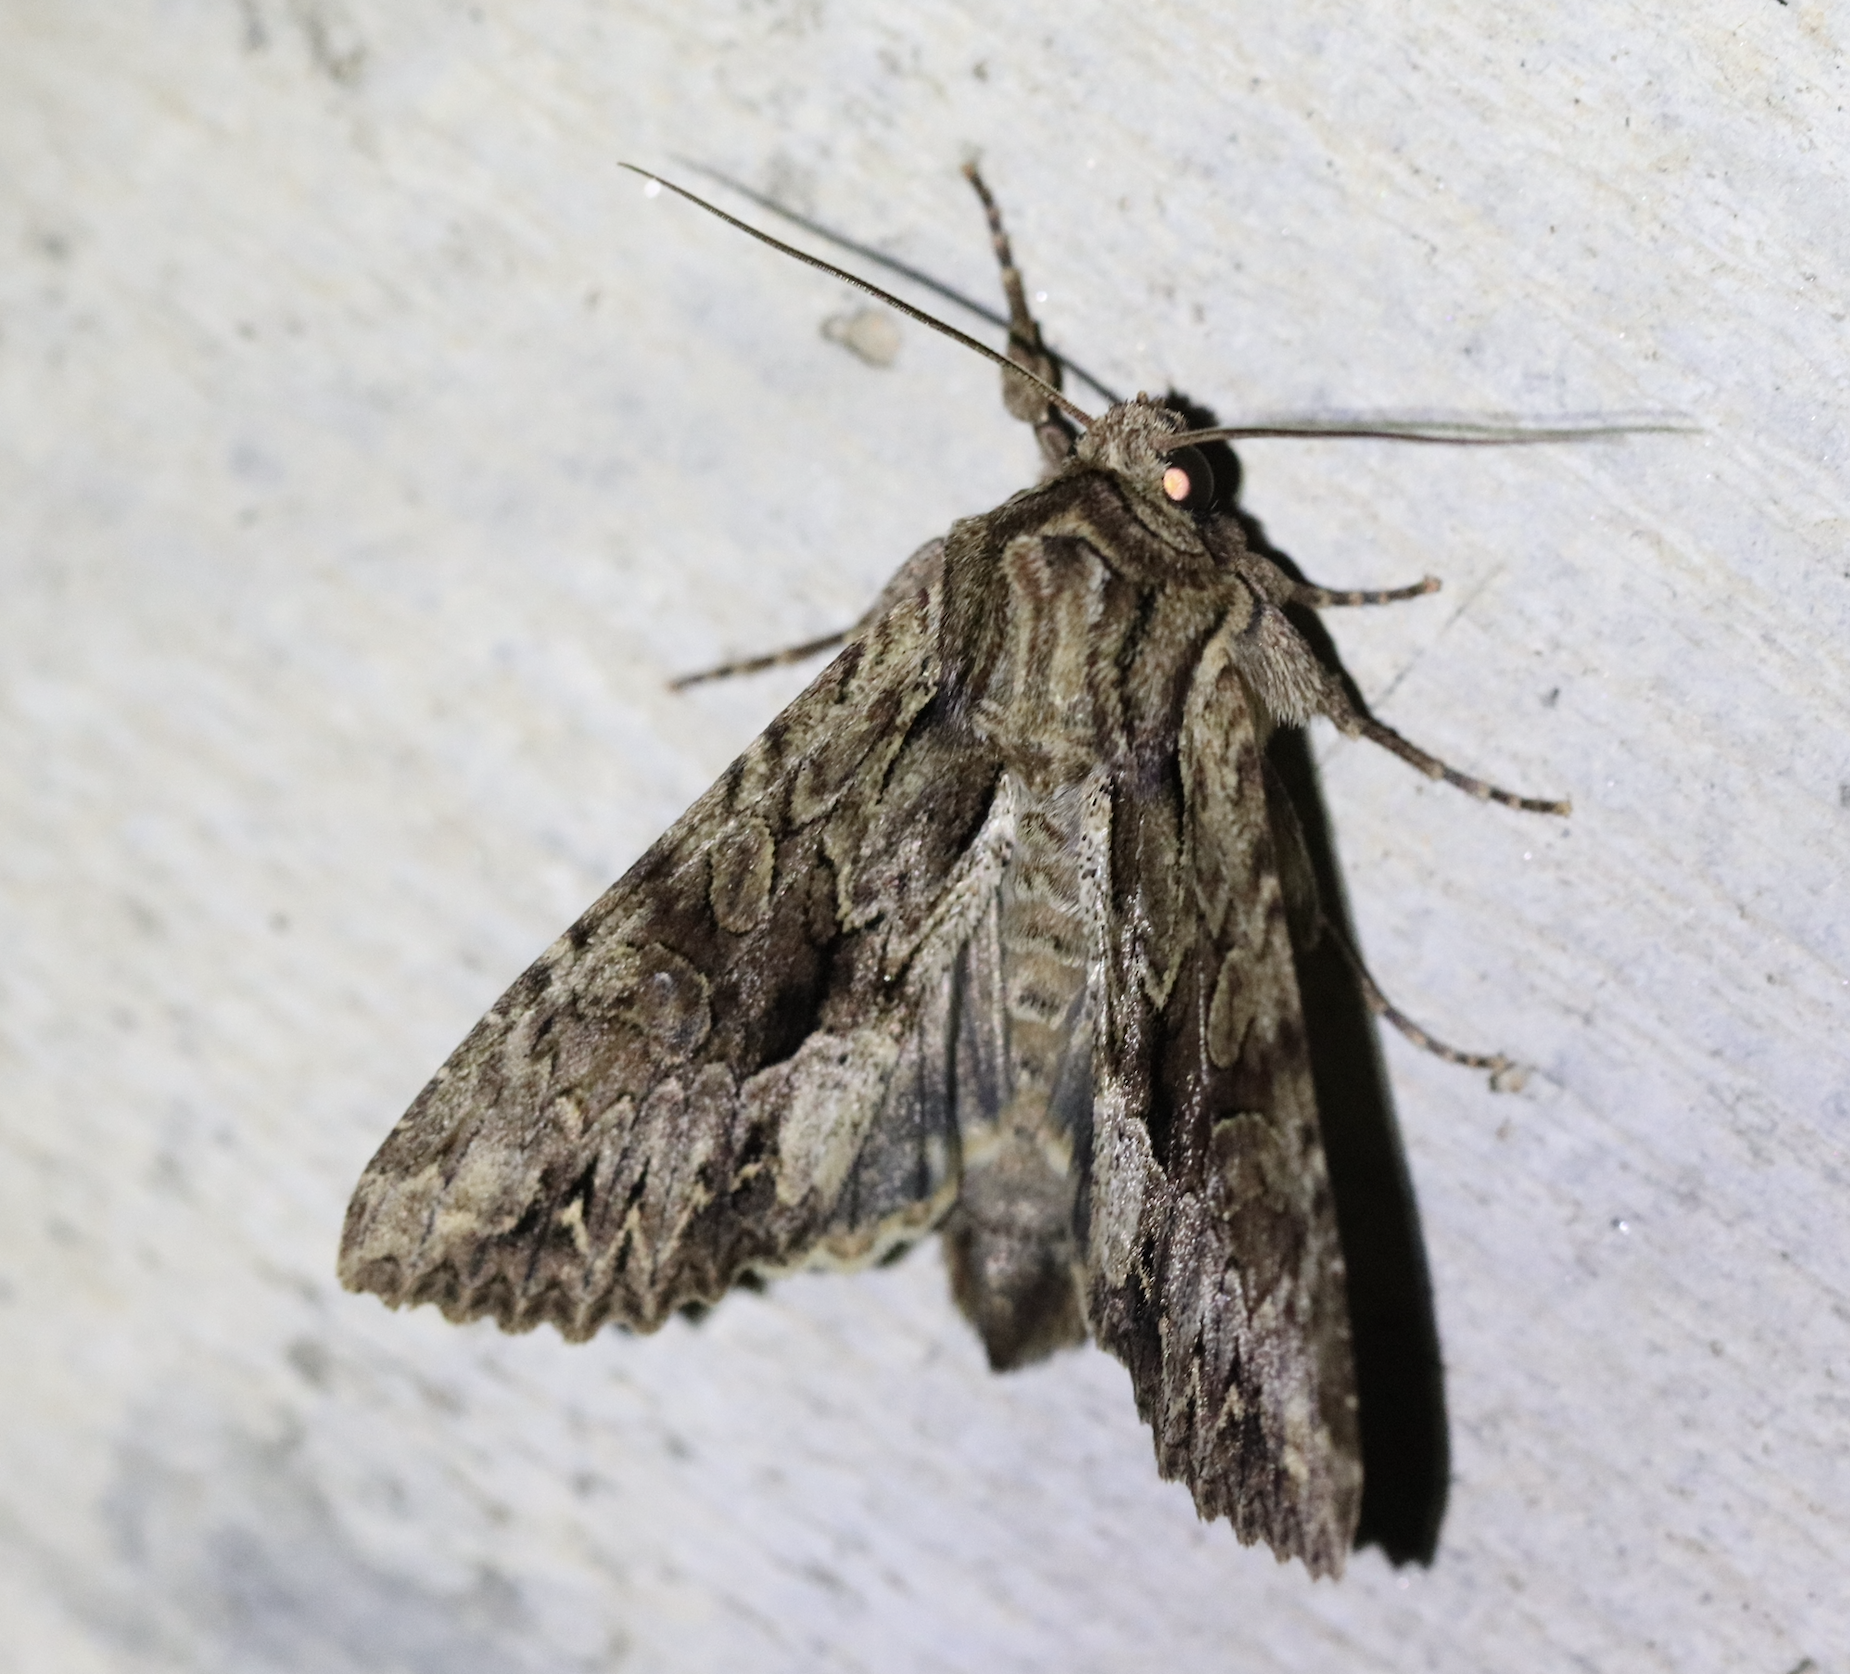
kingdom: Animalia
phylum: Arthropoda
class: Insecta
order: Lepidoptera
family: Noctuidae
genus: Apamea
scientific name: Apamea monoglypha
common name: Dark arches
